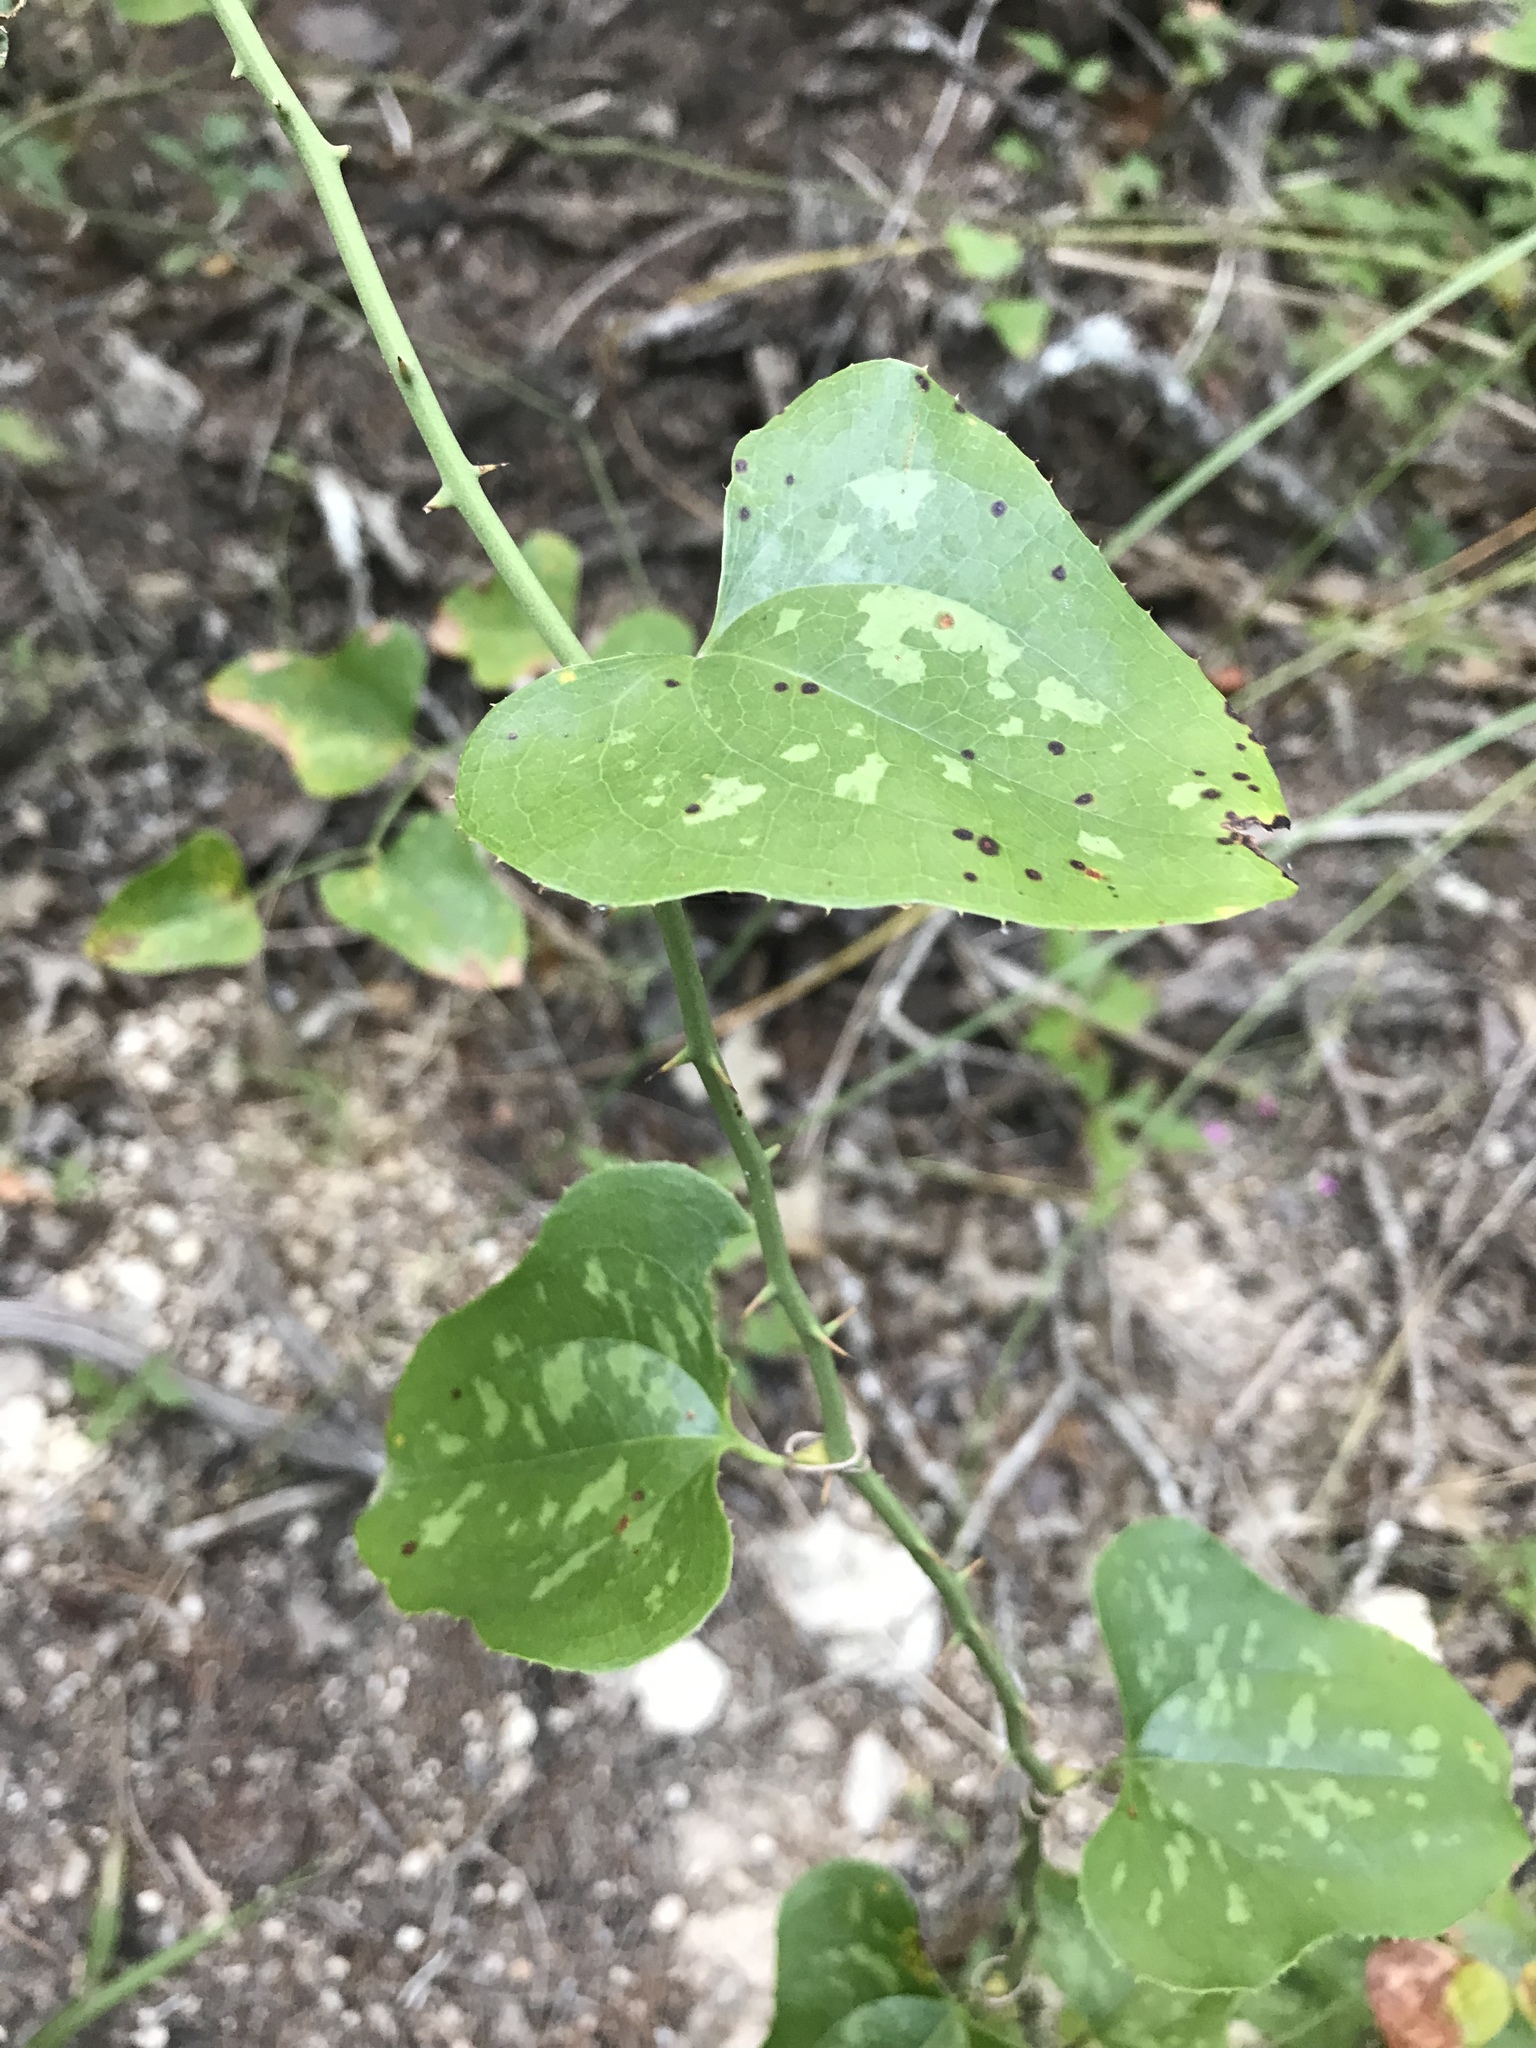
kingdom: Plantae
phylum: Tracheophyta
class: Liliopsida
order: Liliales
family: Smilacaceae
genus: Smilax
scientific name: Smilax bona-nox
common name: Catbrier
